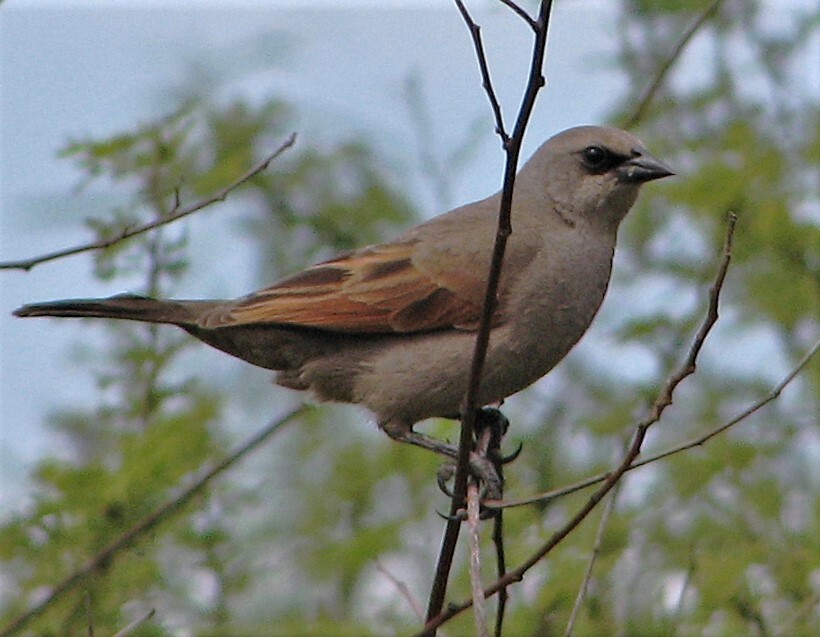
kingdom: Animalia
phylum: Chordata
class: Aves
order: Passeriformes
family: Icteridae
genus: Agelaioides
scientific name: Agelaioides badius
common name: Baywing
